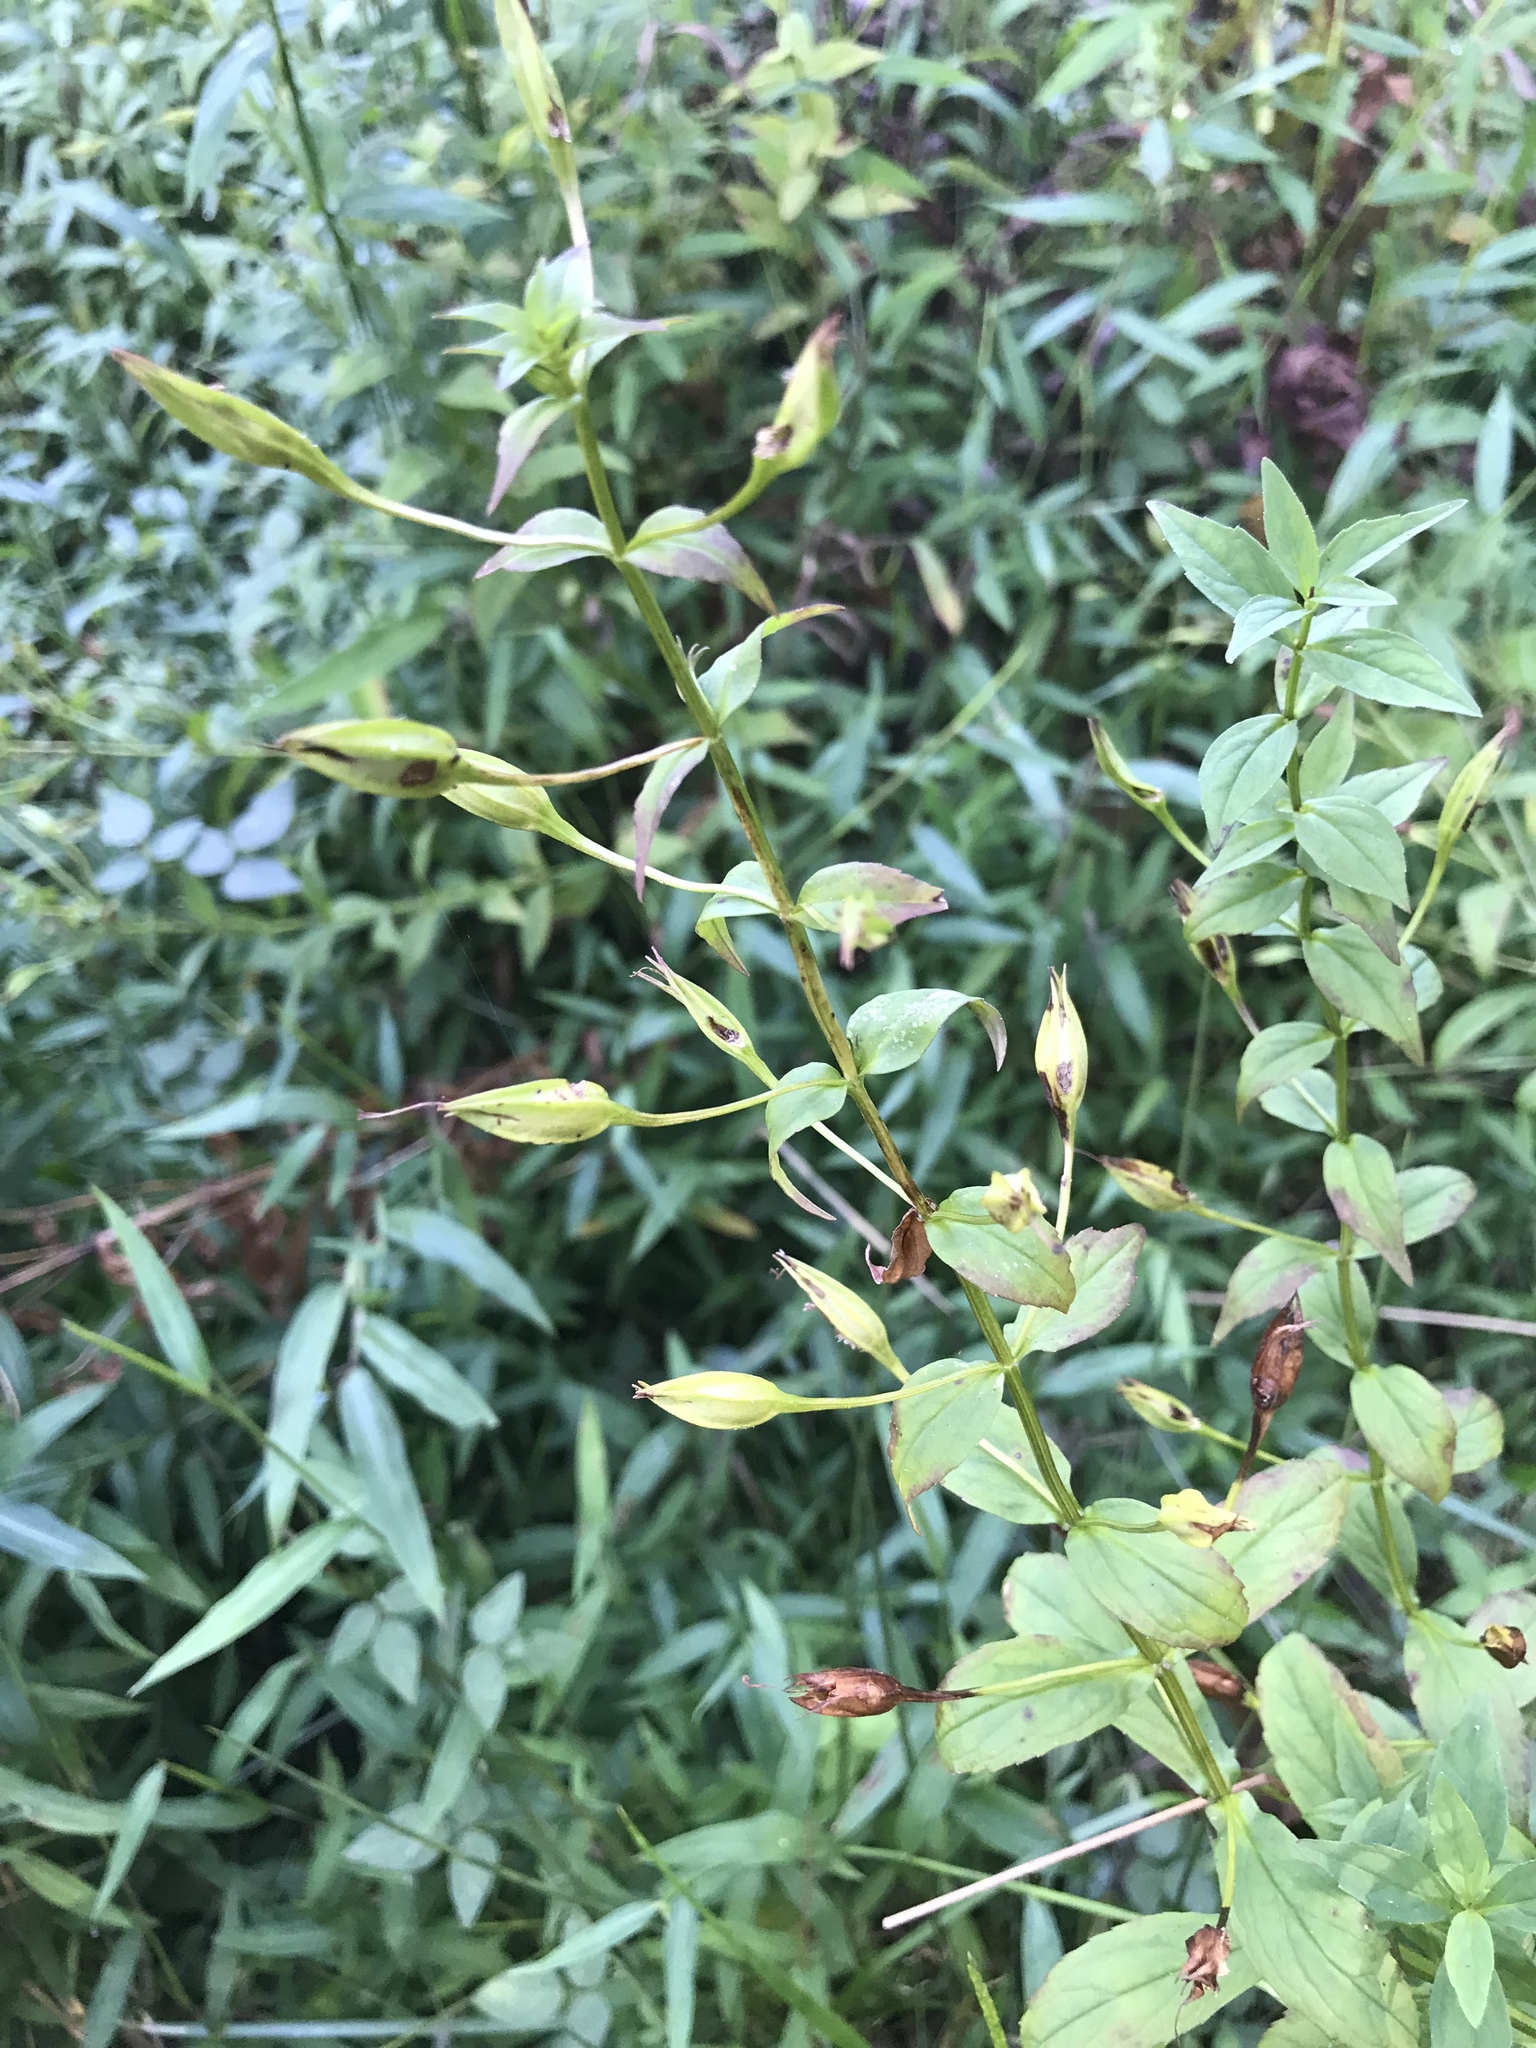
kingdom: Plantae
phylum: Tracheophyta
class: Magnoliopsida
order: Lamiales
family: Phrymaceae
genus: Mimulus
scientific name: Mimulus ringens
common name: Allegheny monkeyflower
